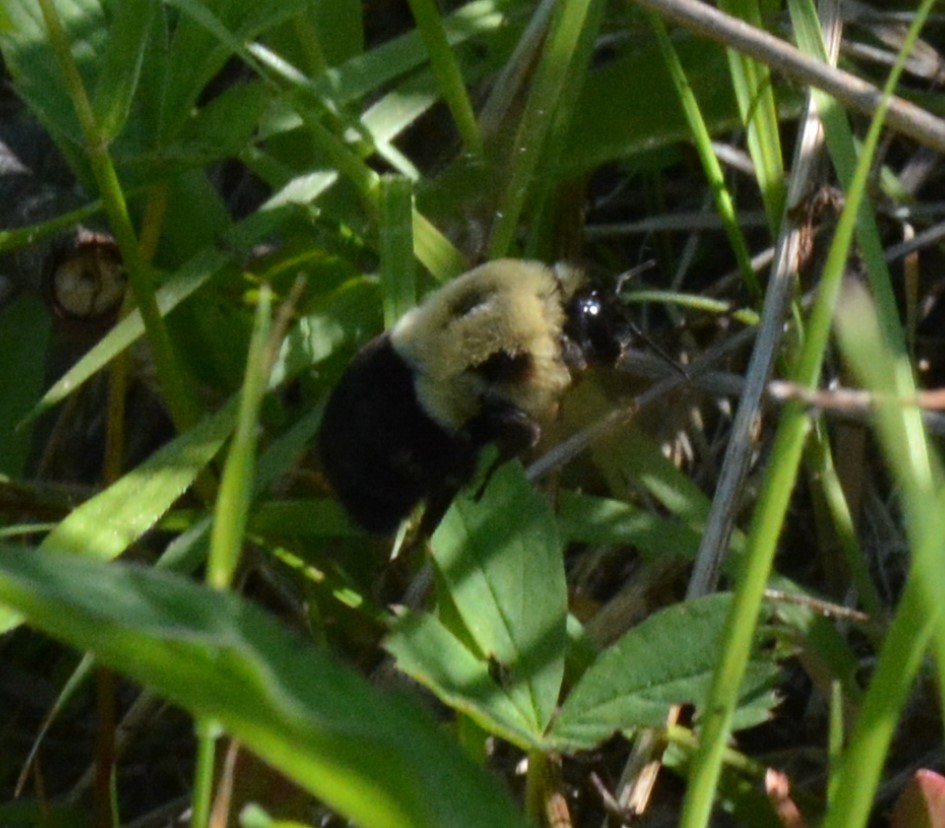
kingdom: Animalia
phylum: Arthropoda
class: Insecta
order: Hymenoptera
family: Apidae
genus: Bombus
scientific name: Bombus impatiens
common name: Common eastern bumble bee
